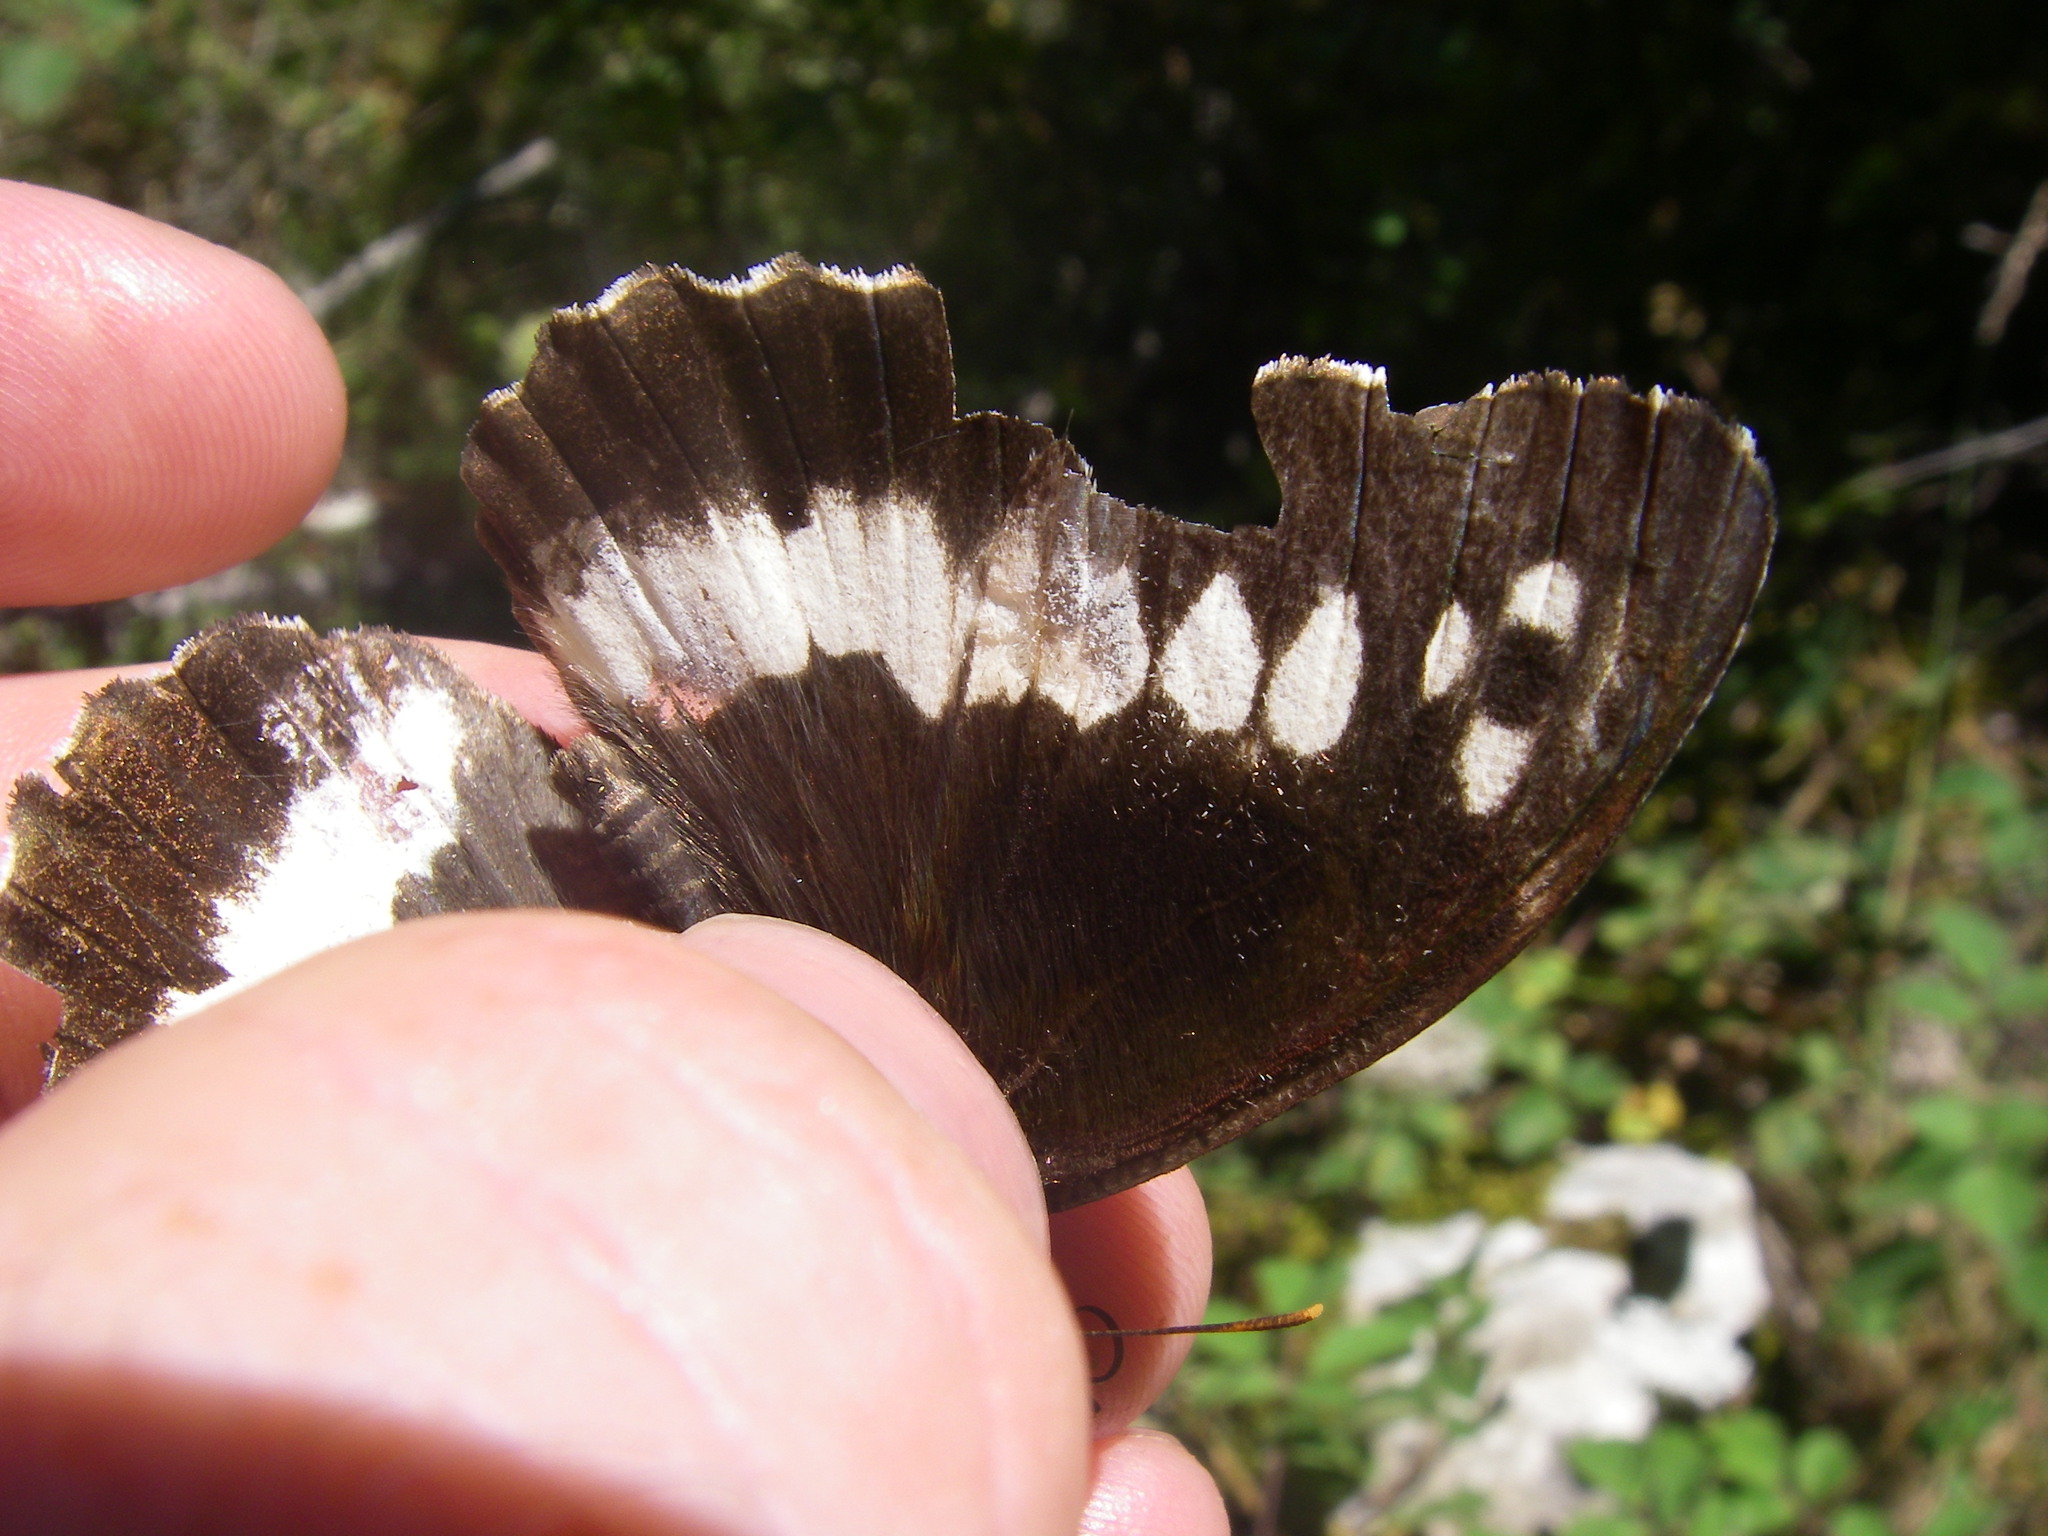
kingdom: Animalia
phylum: Arthropoda
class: Insecta
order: Lepidoptera
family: Lycaenidae
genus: Loweia
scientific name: Loweia tityrus
